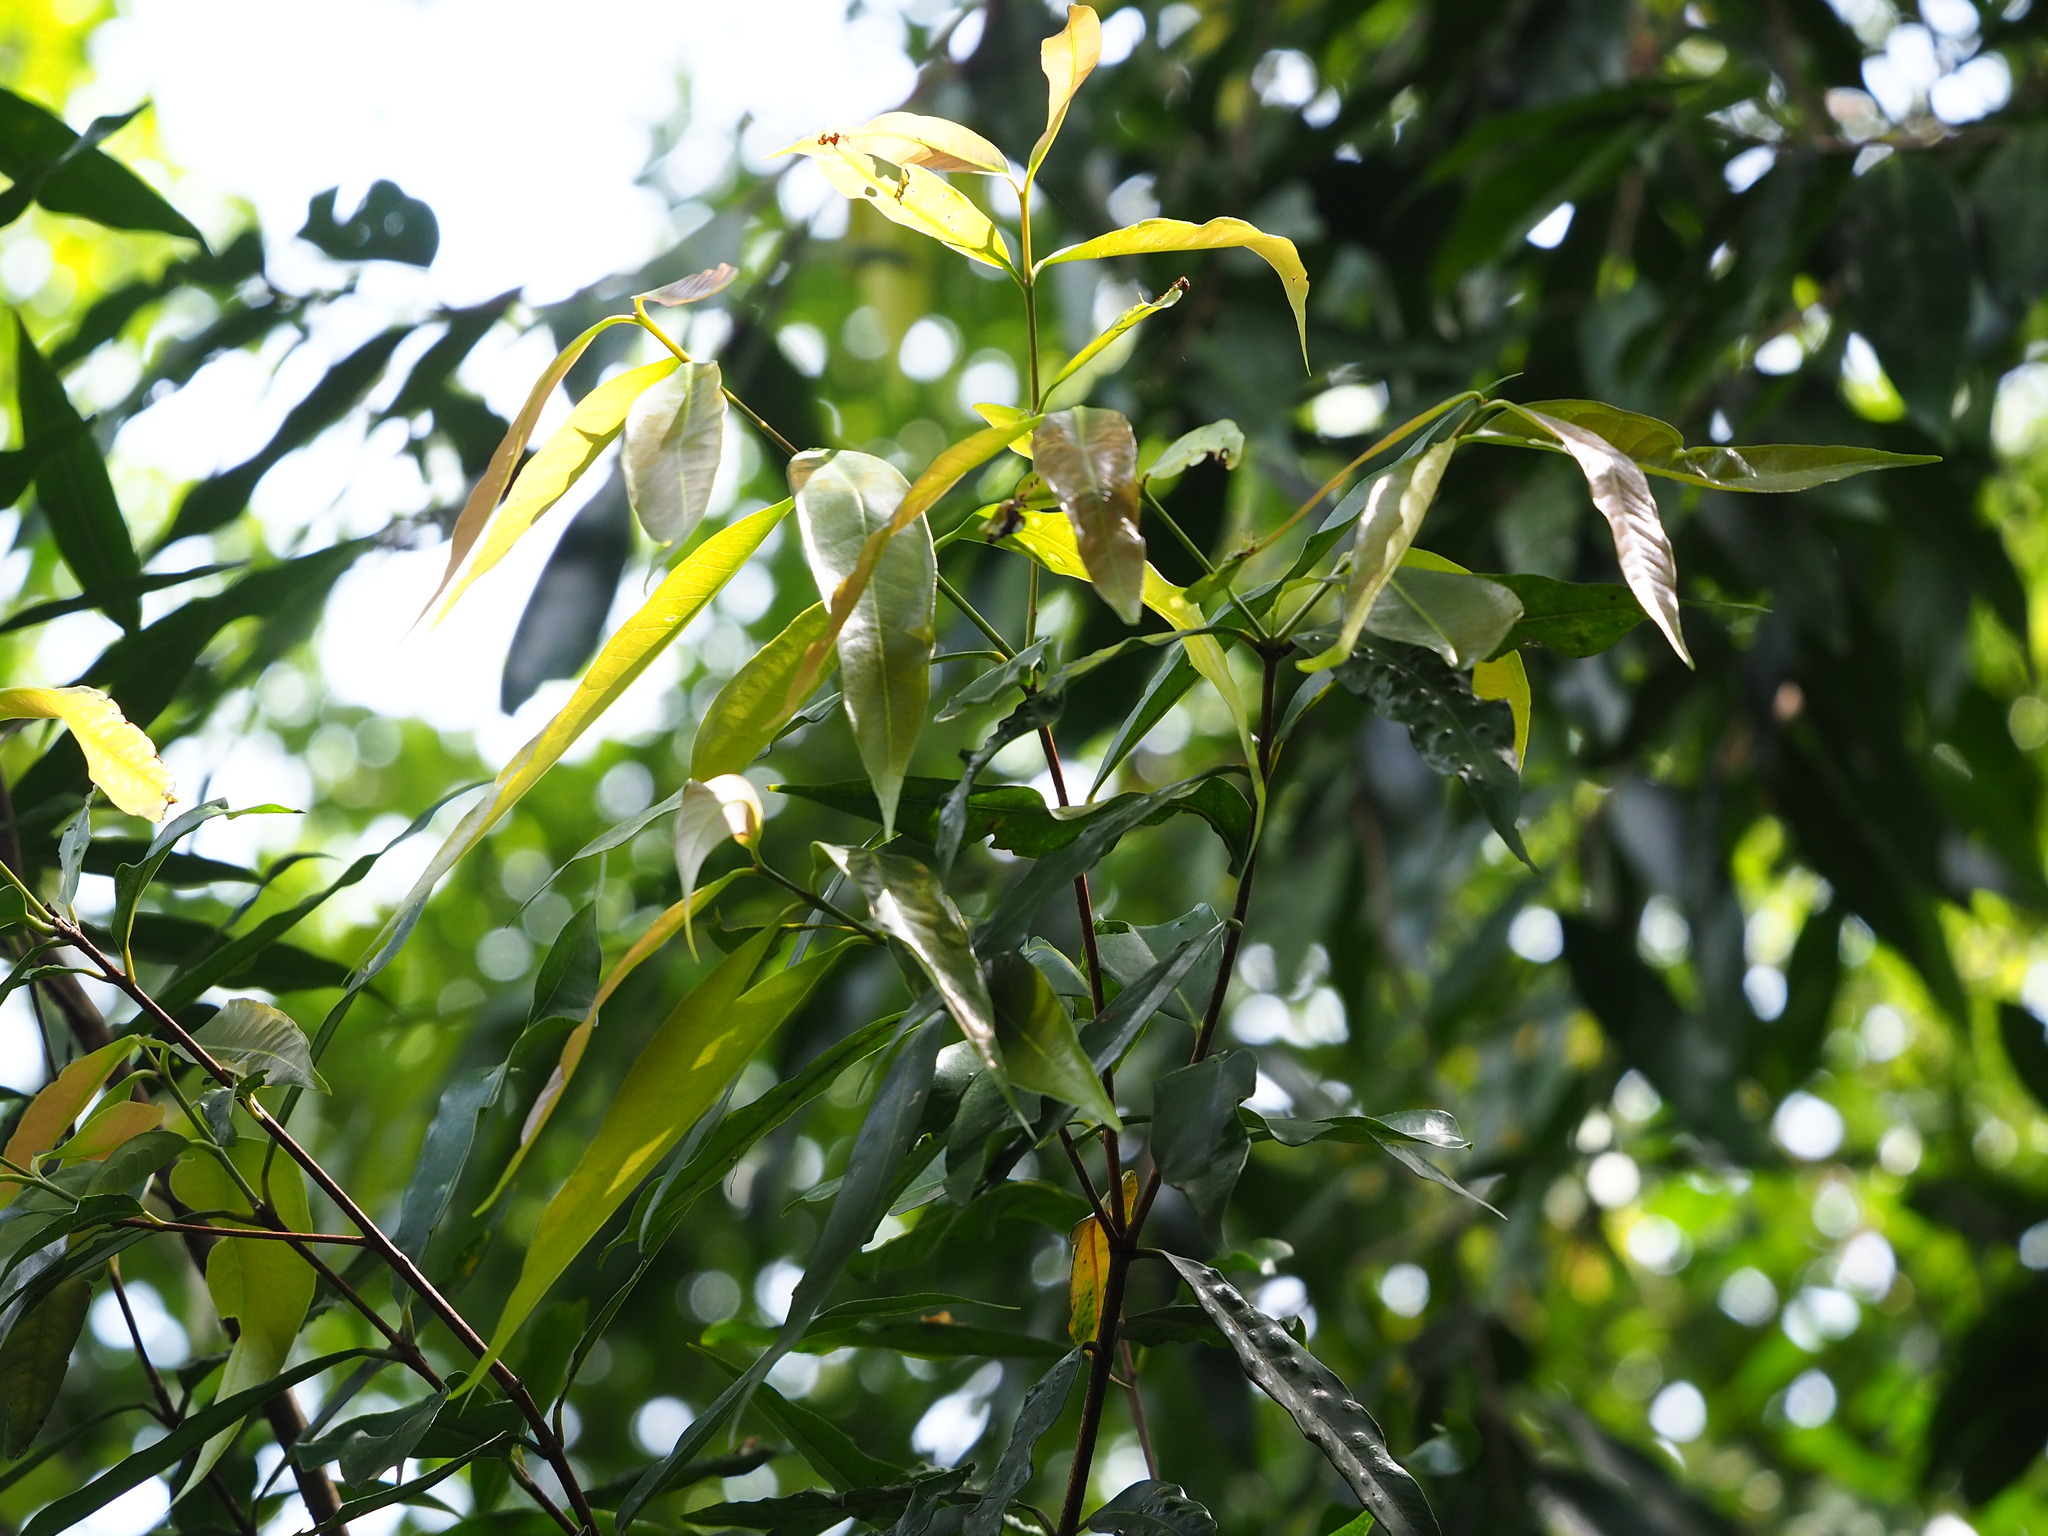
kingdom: Plantae
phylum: Tracheophyta
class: Magnoliopsida
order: Myrtales
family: Myrtaceae
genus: Syzygium
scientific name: Syzygium jambos
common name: Malabar plum
